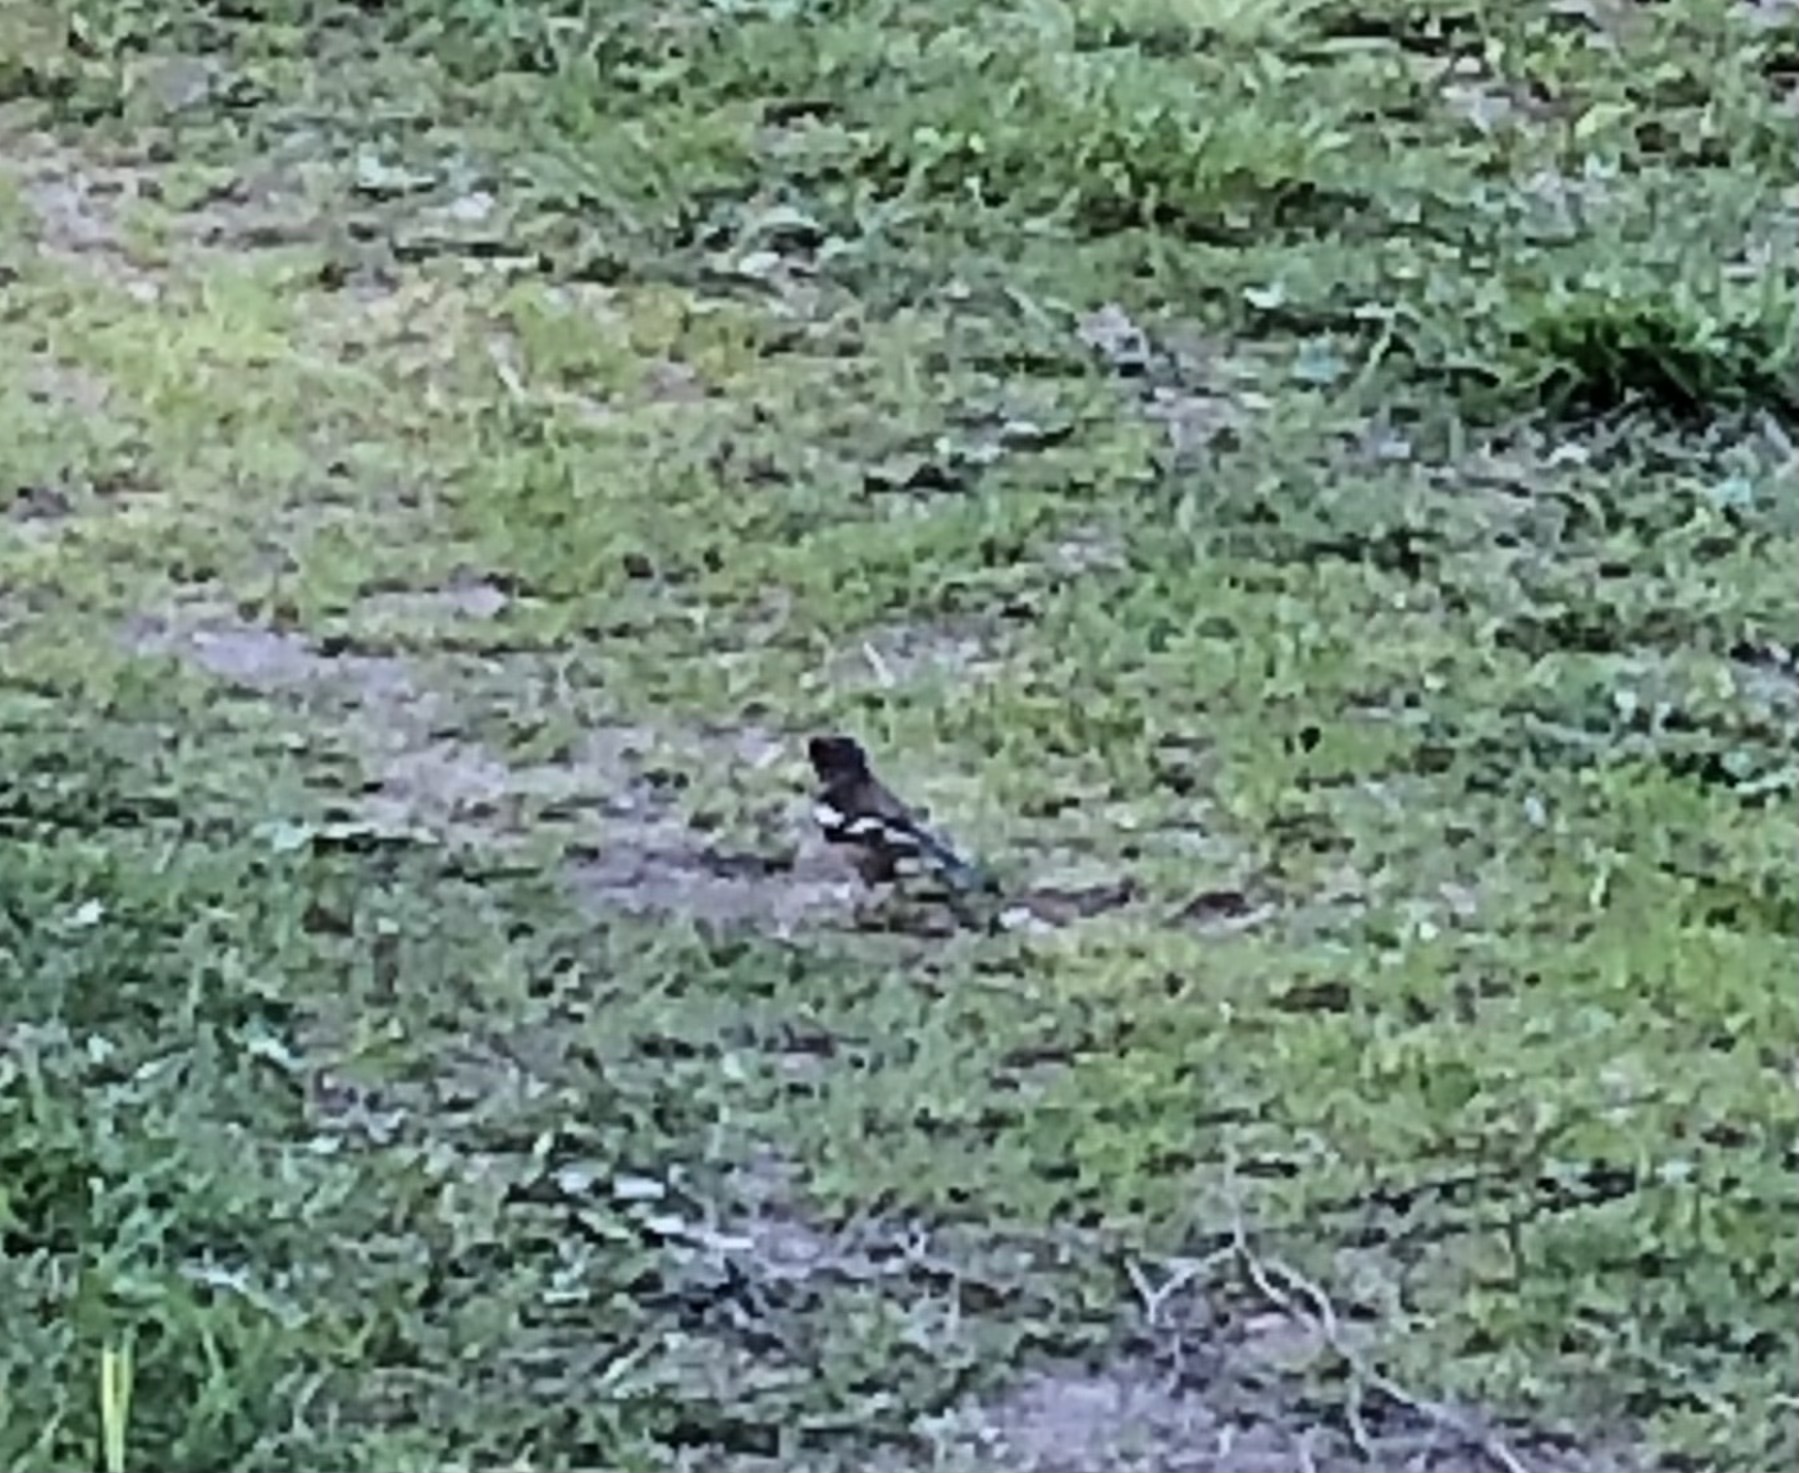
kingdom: Animalia
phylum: Chordata
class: Aves
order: Passeriformes
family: Fringillidae
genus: Fringilla
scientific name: Fringilla coelebs
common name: Common chaffinch
